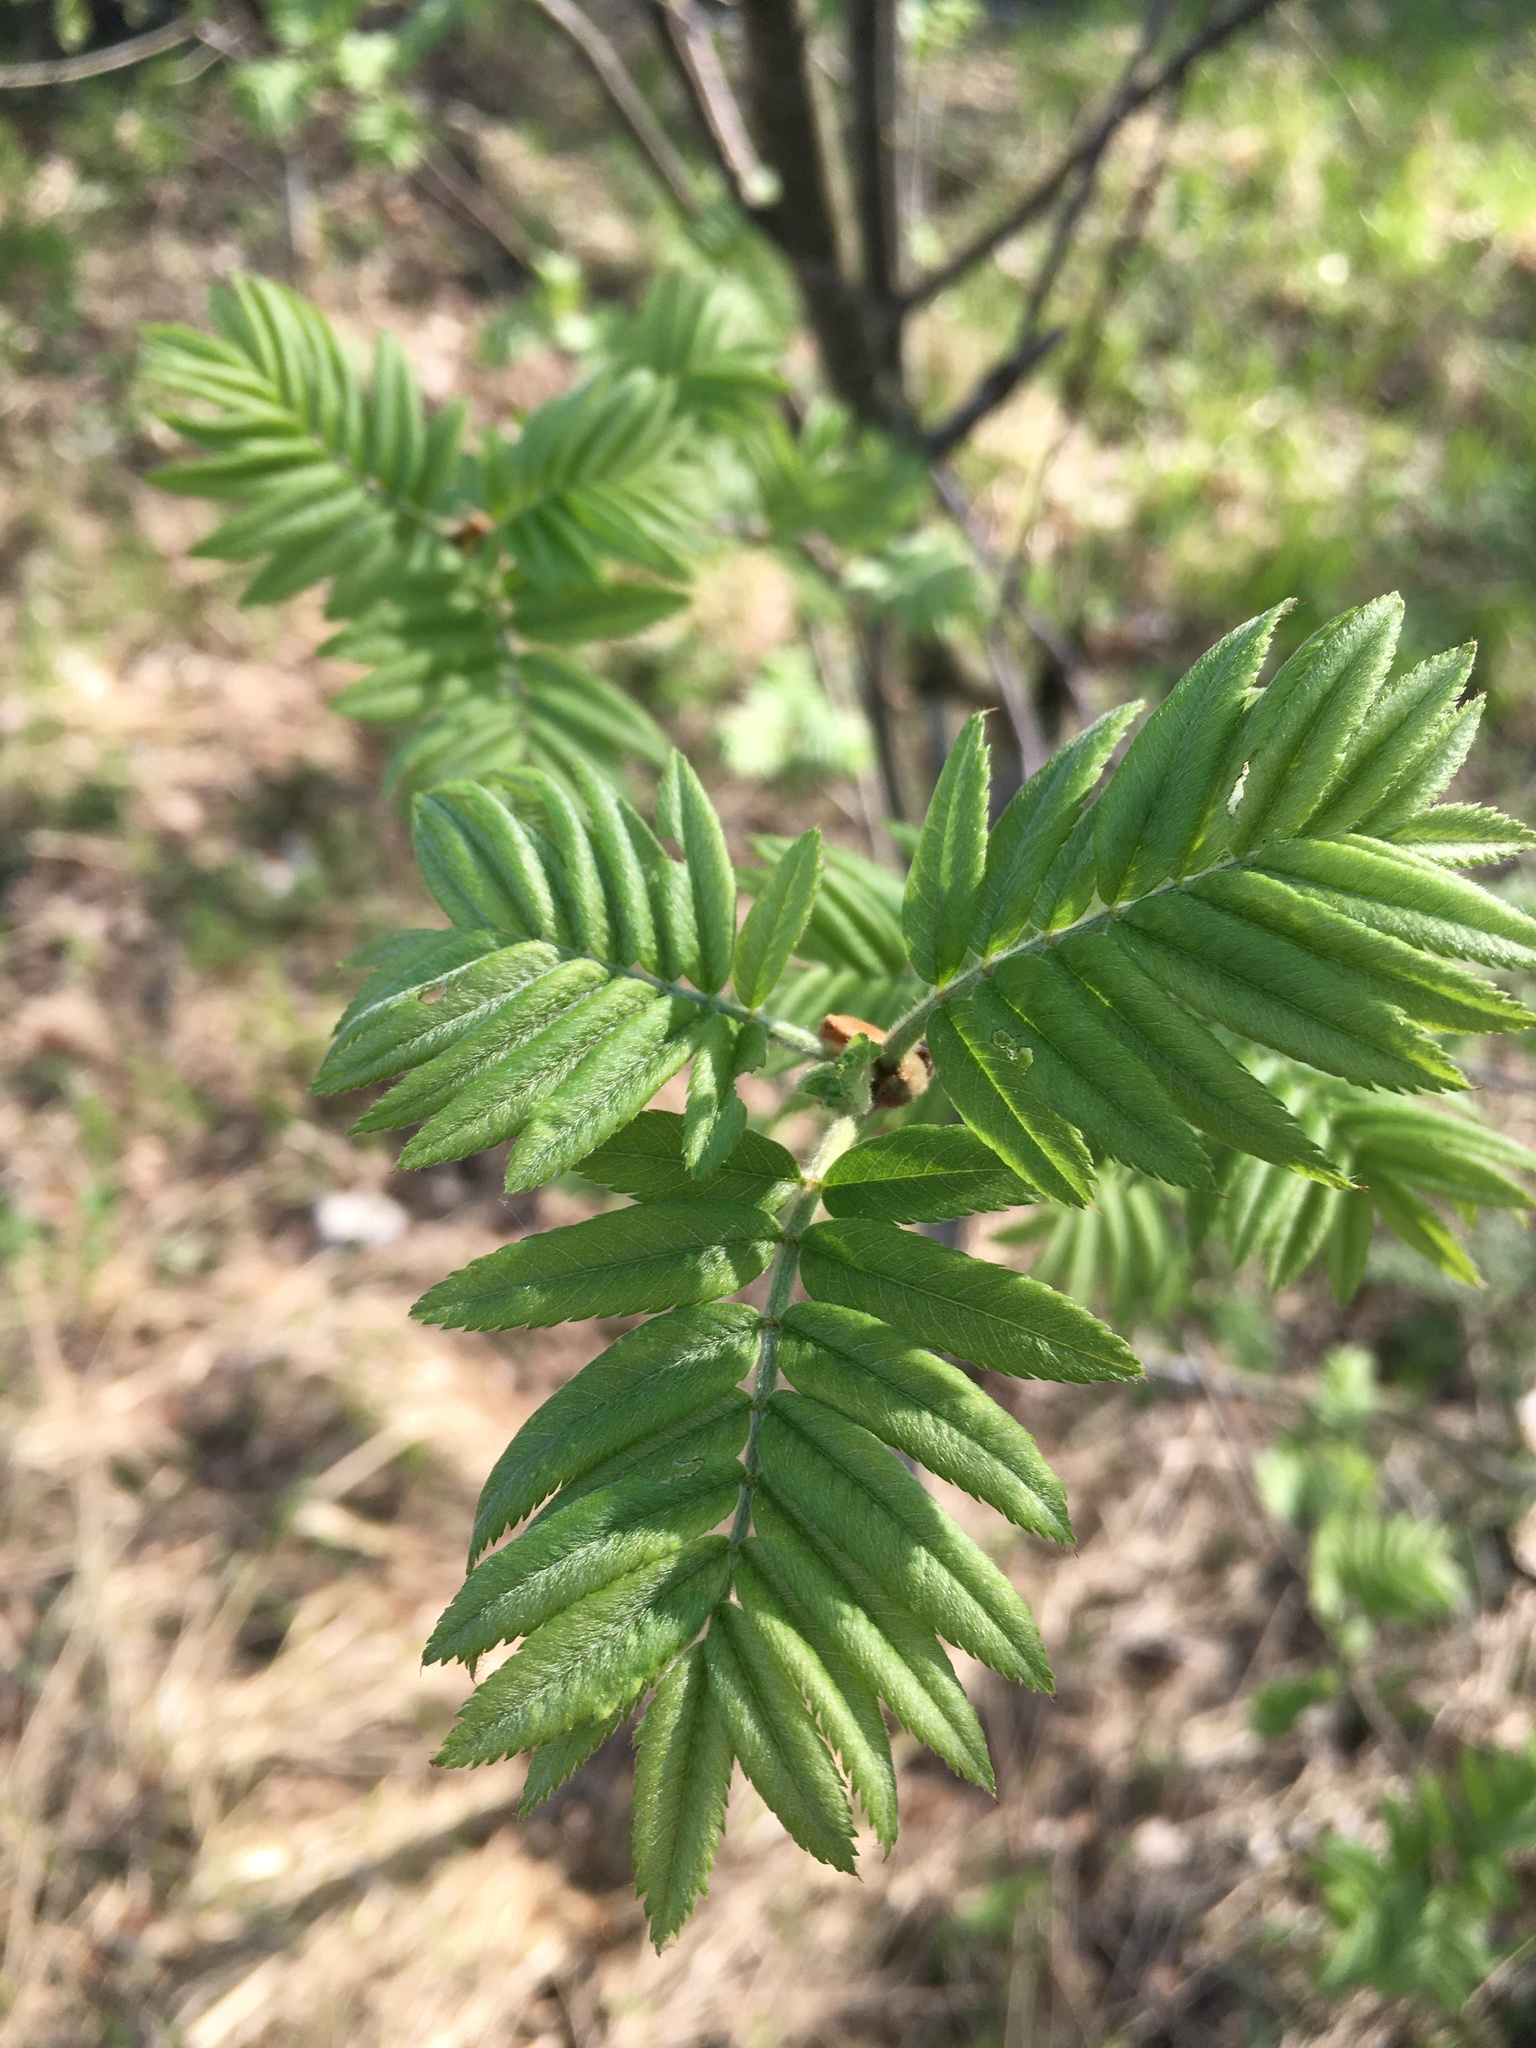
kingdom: Plantae
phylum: Tracheophyta
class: Magnoliopsida
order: Rosales
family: Rosaceae
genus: Sorbus
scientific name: Sorbus aucuparia
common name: Rowan
